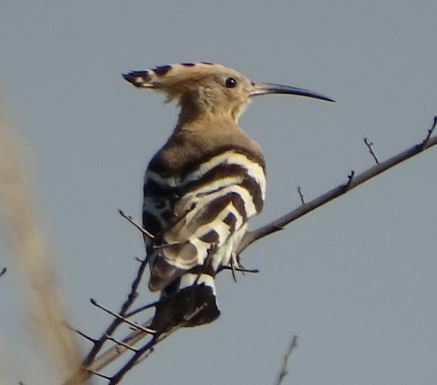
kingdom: Animalia
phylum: Chordata
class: Aves
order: Bucerotiformes
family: Upupidae
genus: Upupa
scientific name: Upupa epops
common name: Eurasian hoopoe
